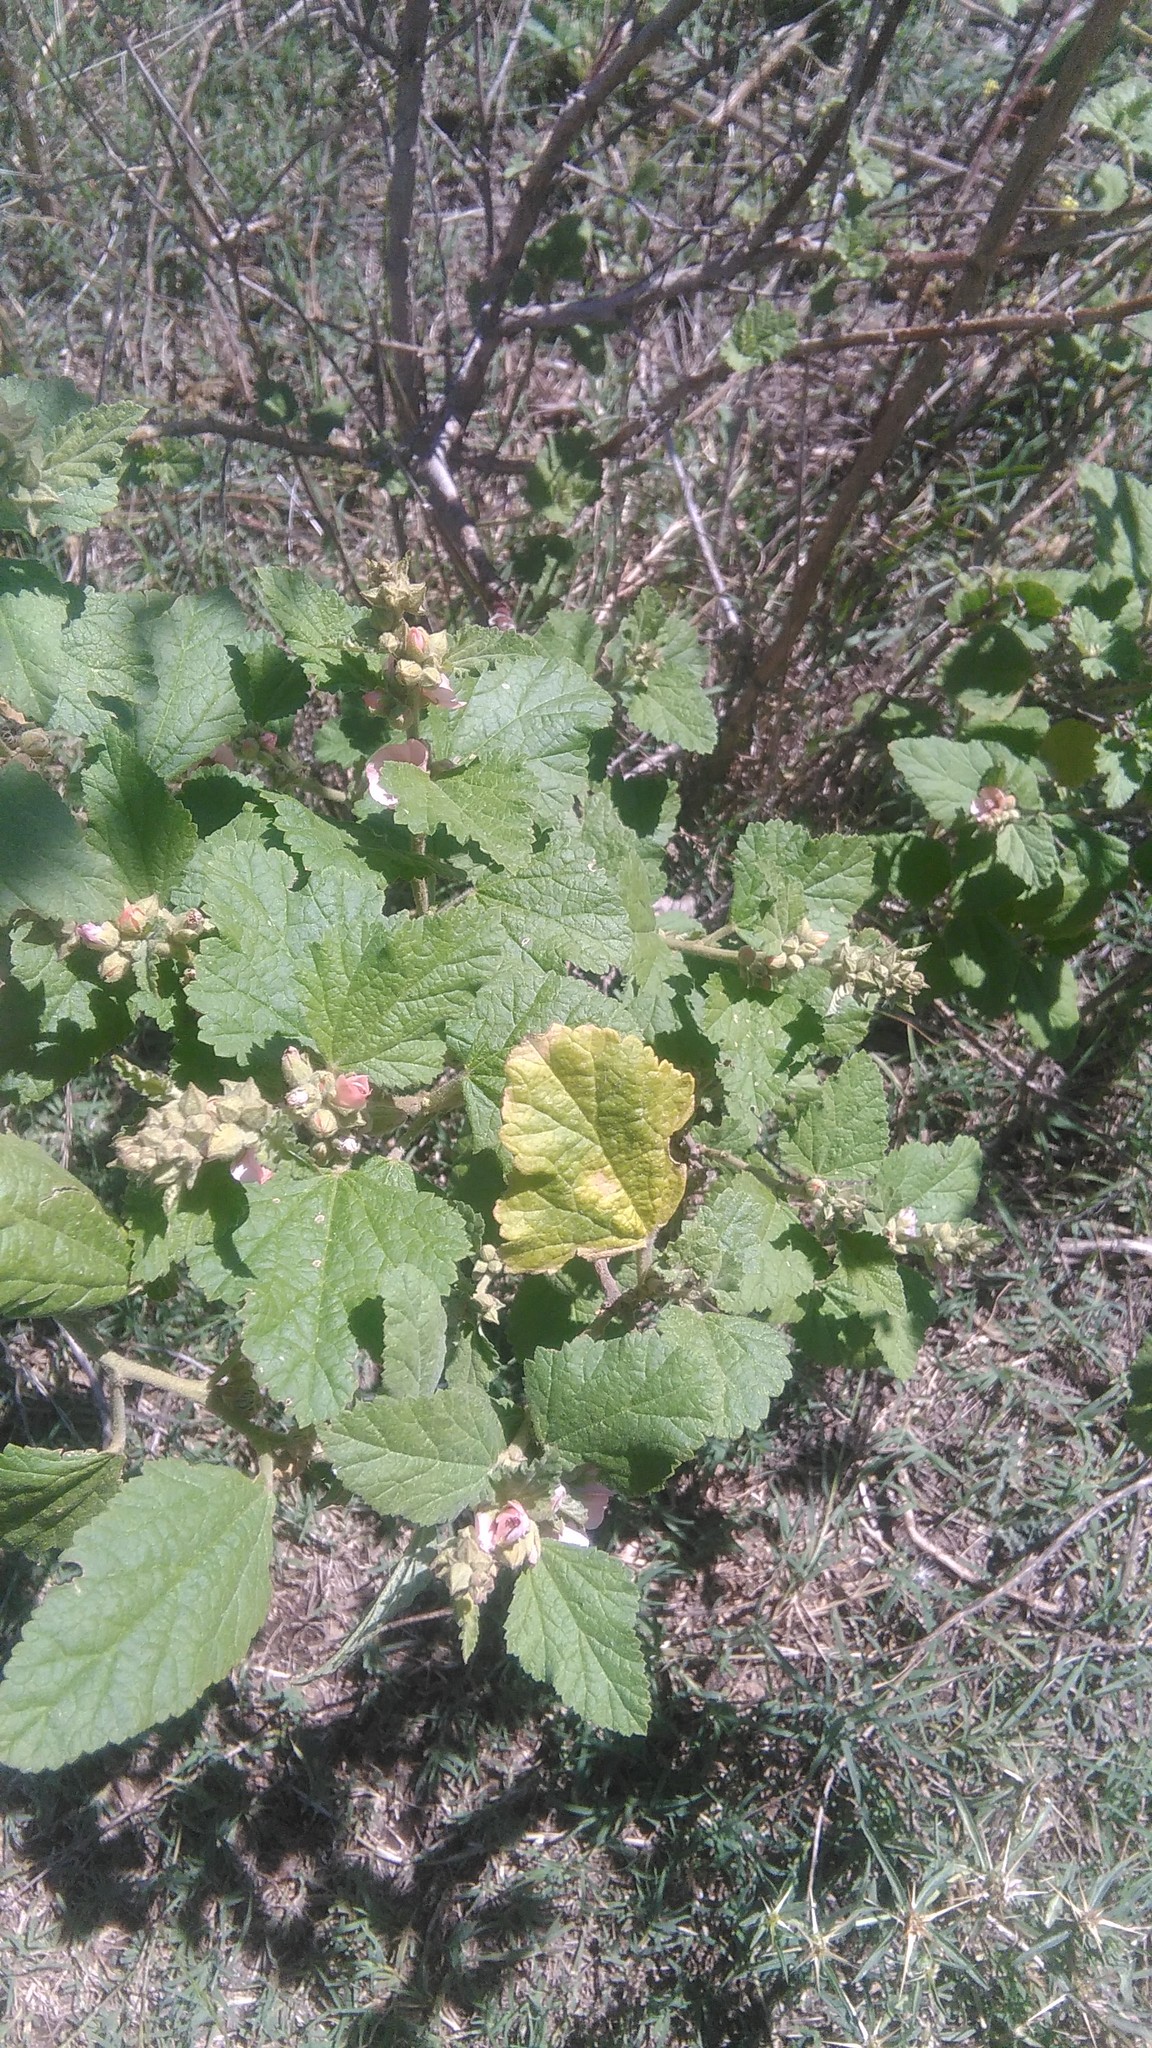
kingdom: Plantae
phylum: Tracheophyta
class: Magnoliopsida
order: Malvales
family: Malvaceae
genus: Sphaeralcea
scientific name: Sphaeralcea bonariensis
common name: Latin globemallow
